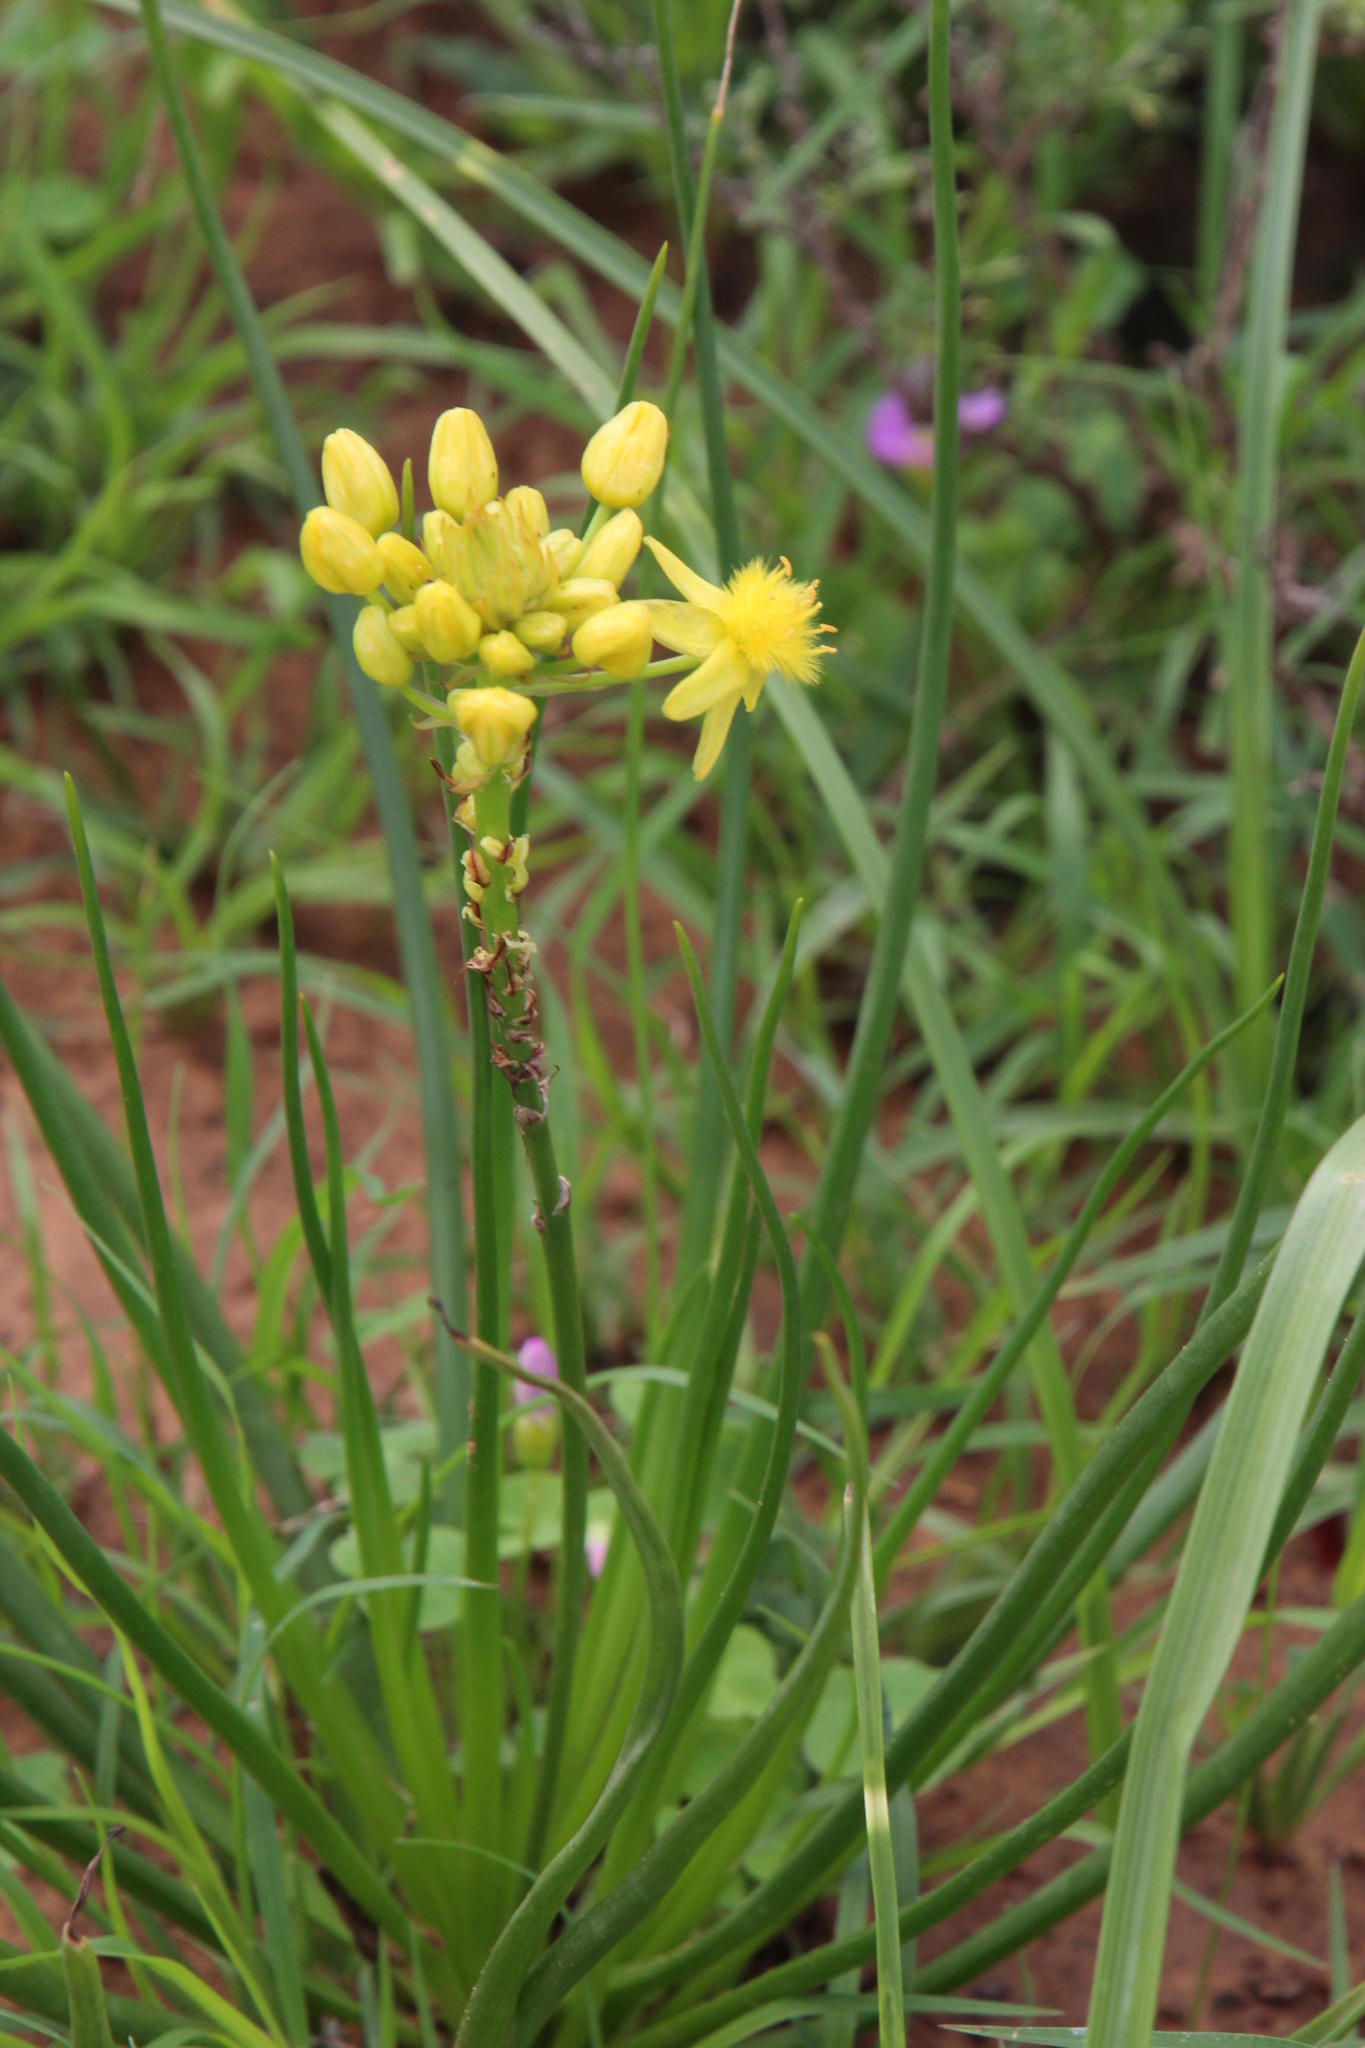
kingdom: Plantae
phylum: Tracheophyta
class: Liliopsida
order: Asparagales
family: Asphodelaceae
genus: Bulbine
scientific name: Bulbine capitata
